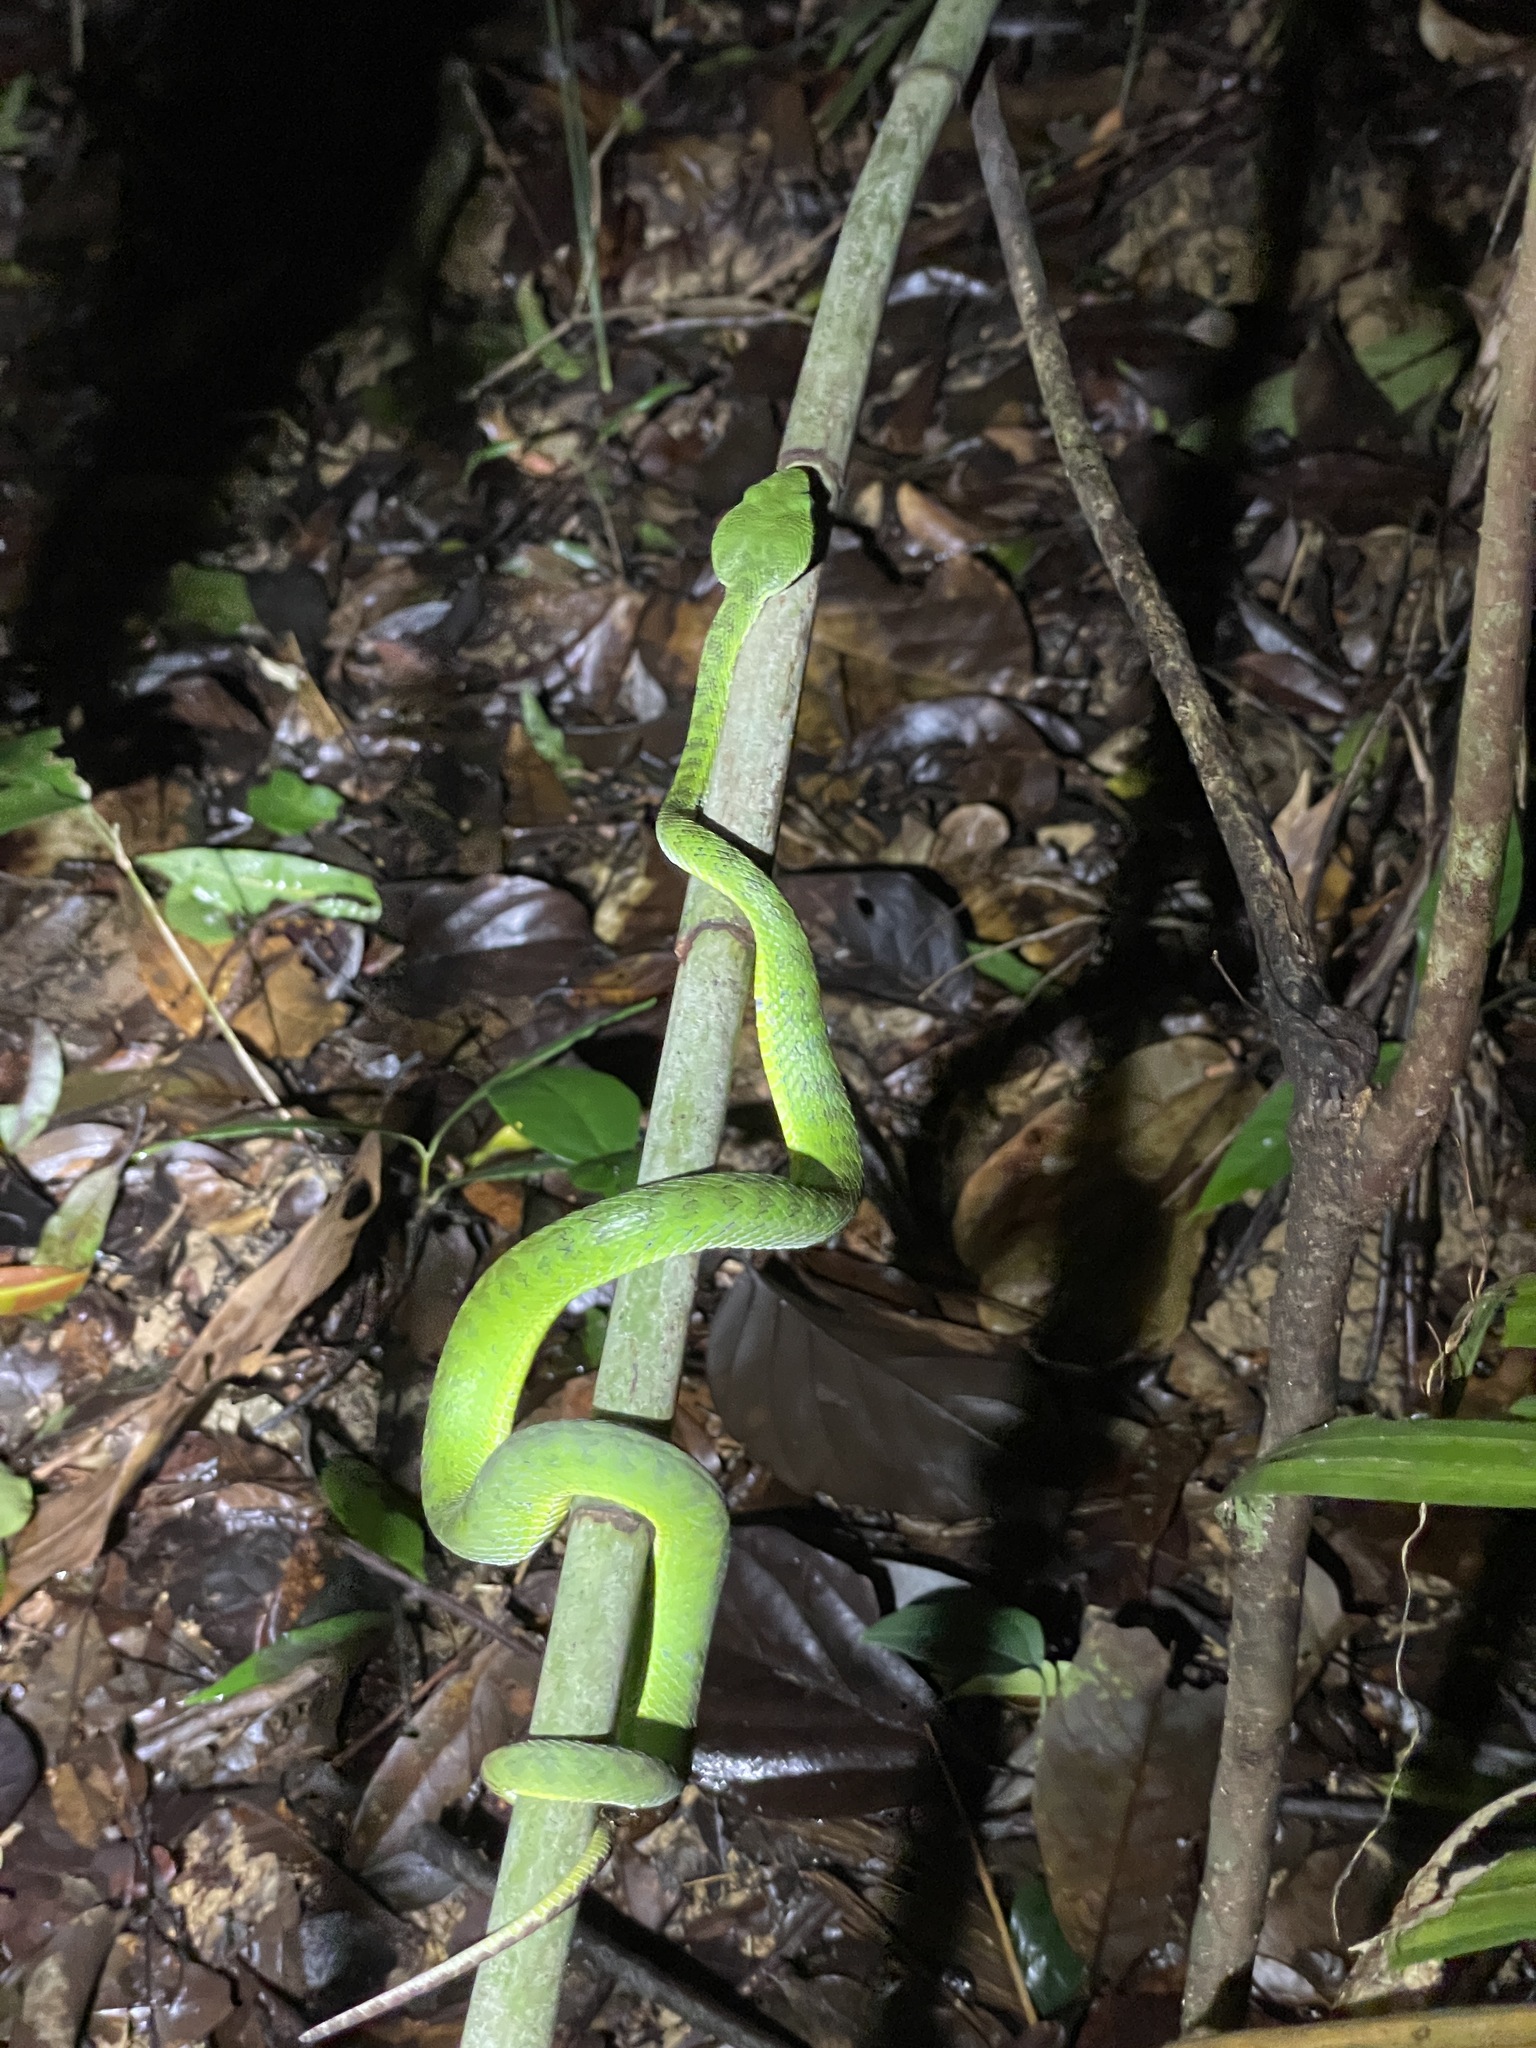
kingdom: Animalia
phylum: Chordata
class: Squamata
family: Viperidae
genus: Trimeresurus
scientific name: Trimeresurus sabahi
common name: Sabah bamboo pit viper
